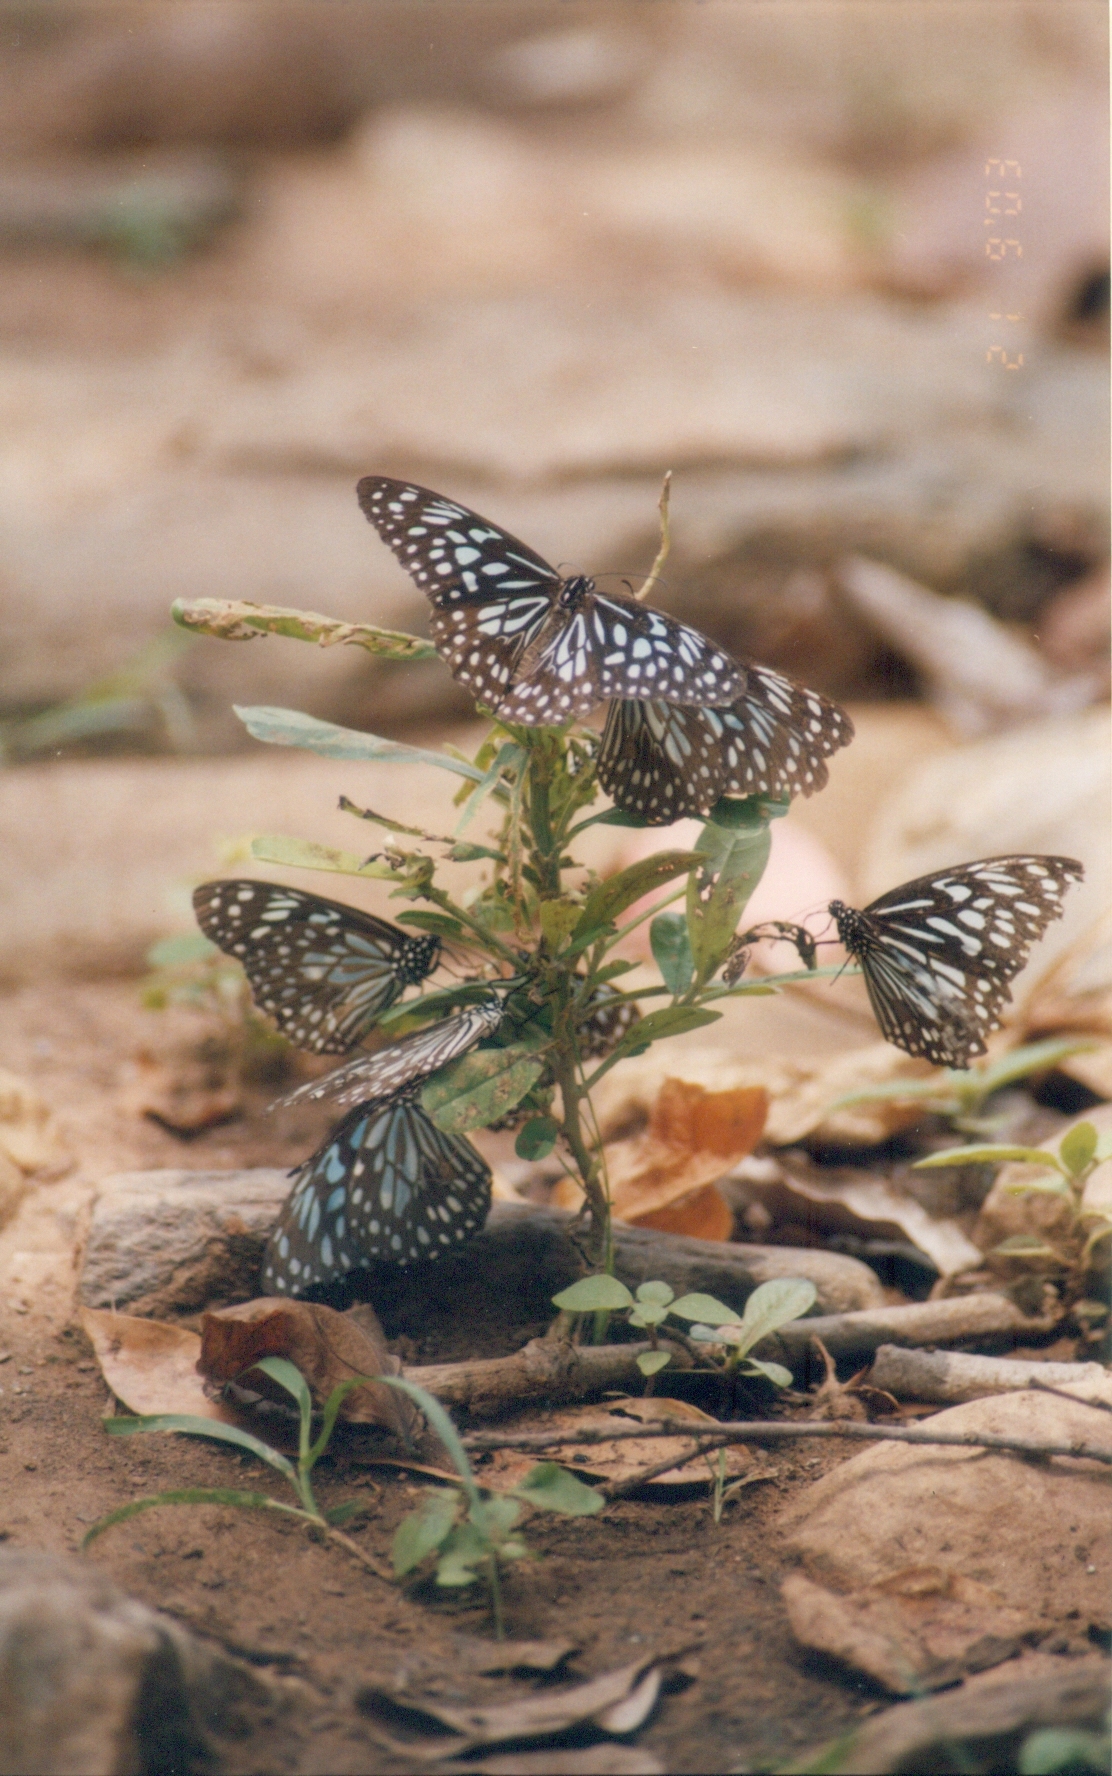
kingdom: Animalia
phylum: Arthropoda
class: Insecta
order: Lepidoptera
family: Nymphalidae
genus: Tirumala
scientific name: Tirumala septentrionis
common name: Dark blue tiger butterfly
